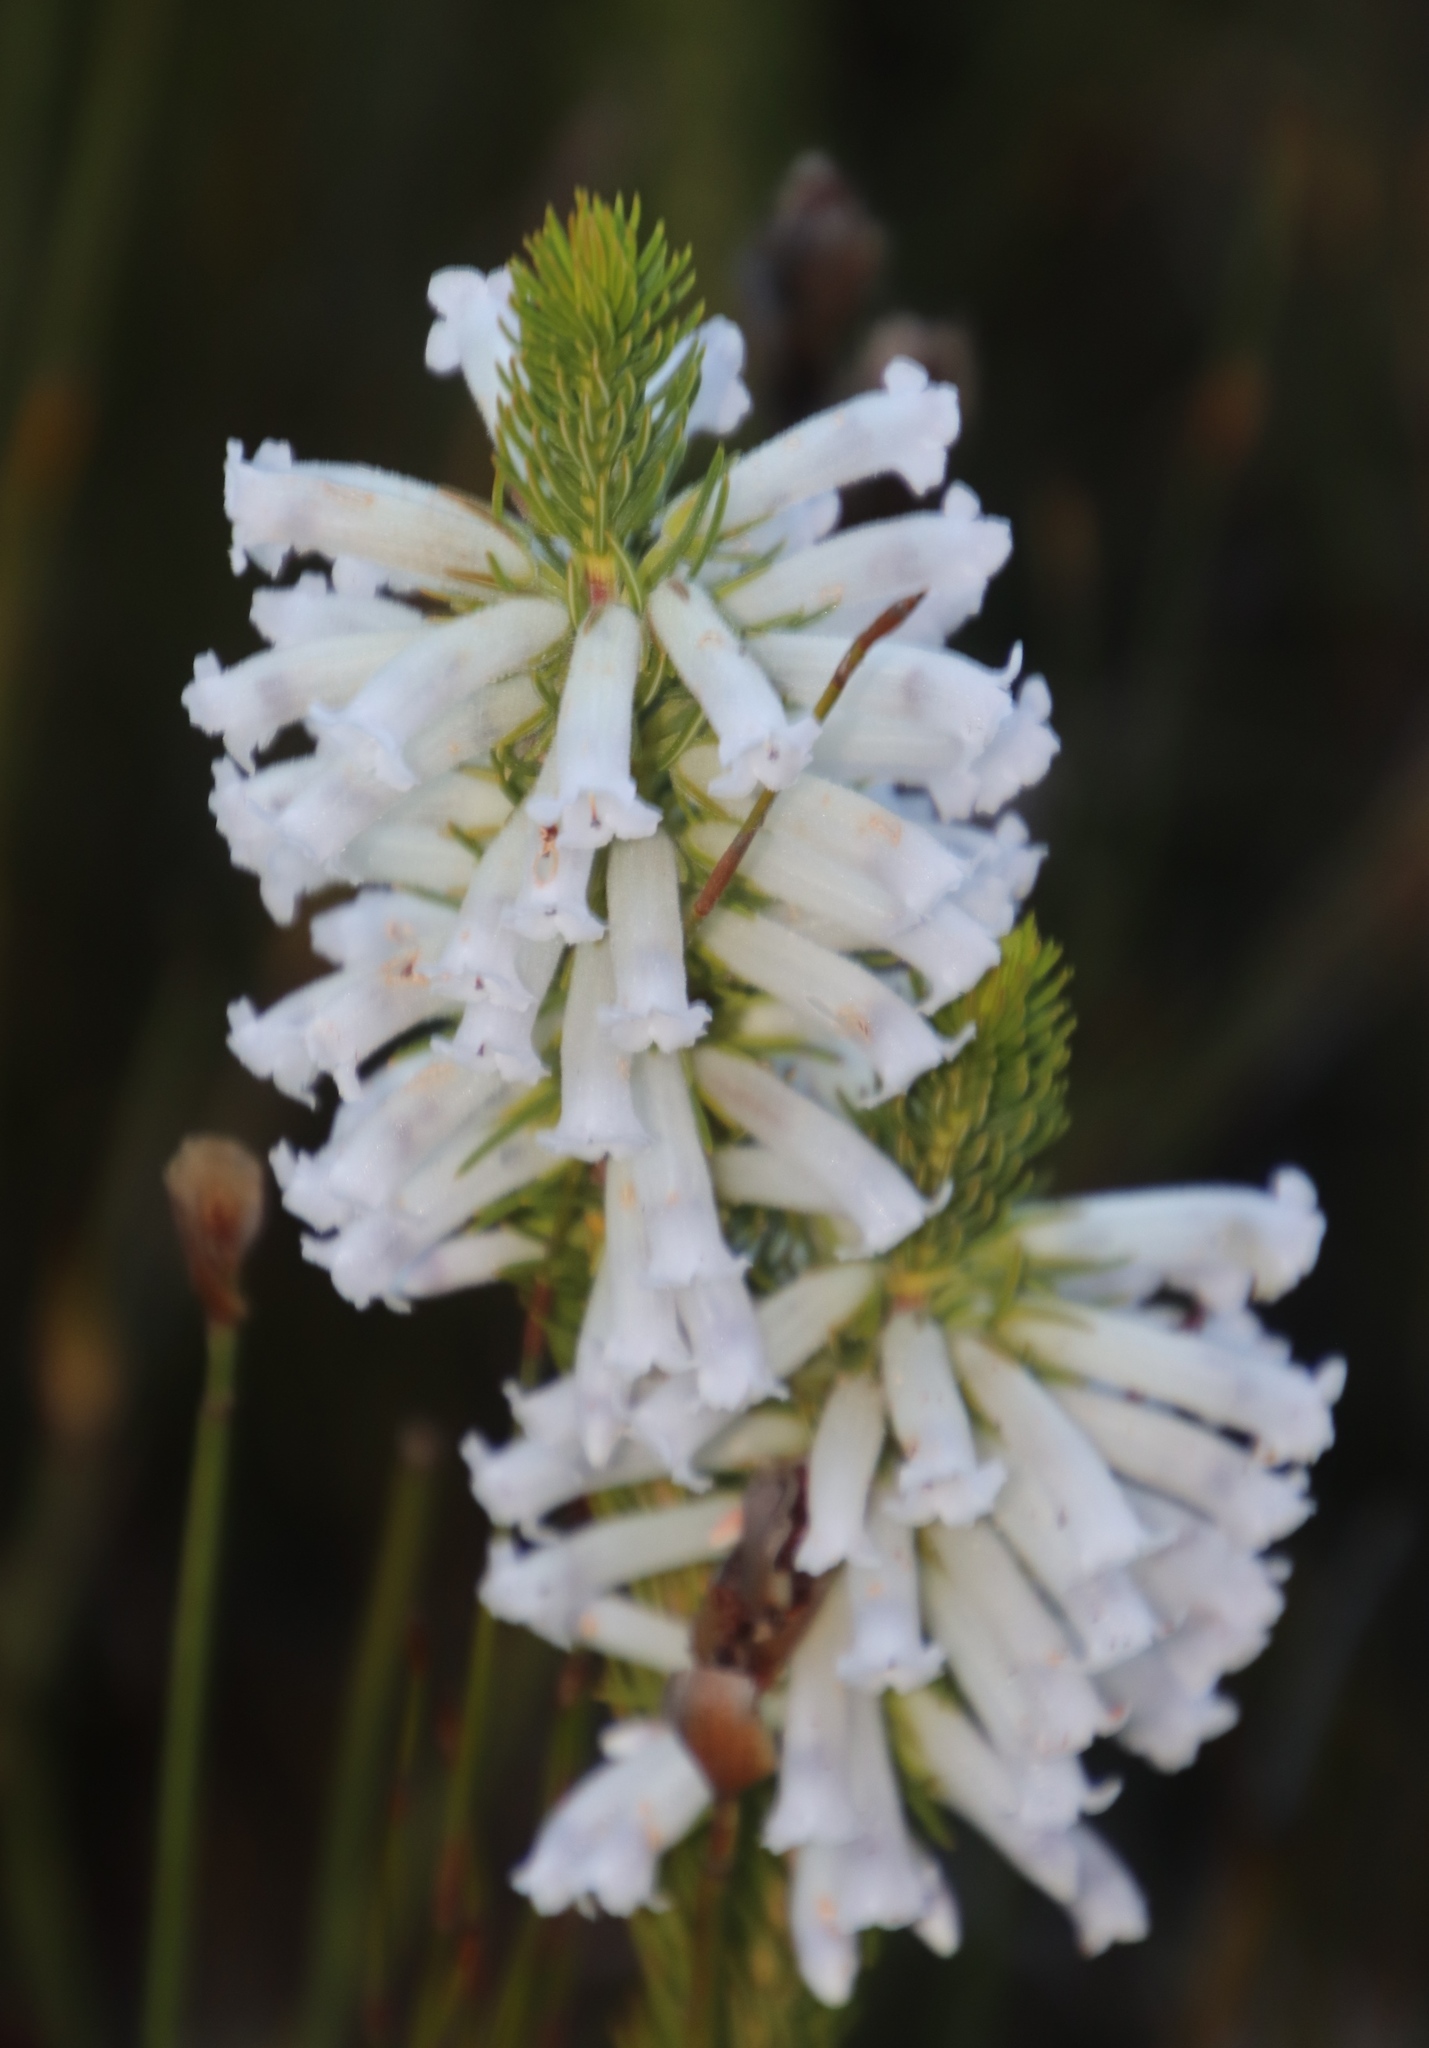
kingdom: Plantae
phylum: Tracheophyta
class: Magnoliopsida
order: Ericales
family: Ericaceae
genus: Erica
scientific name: Erica viscaria
